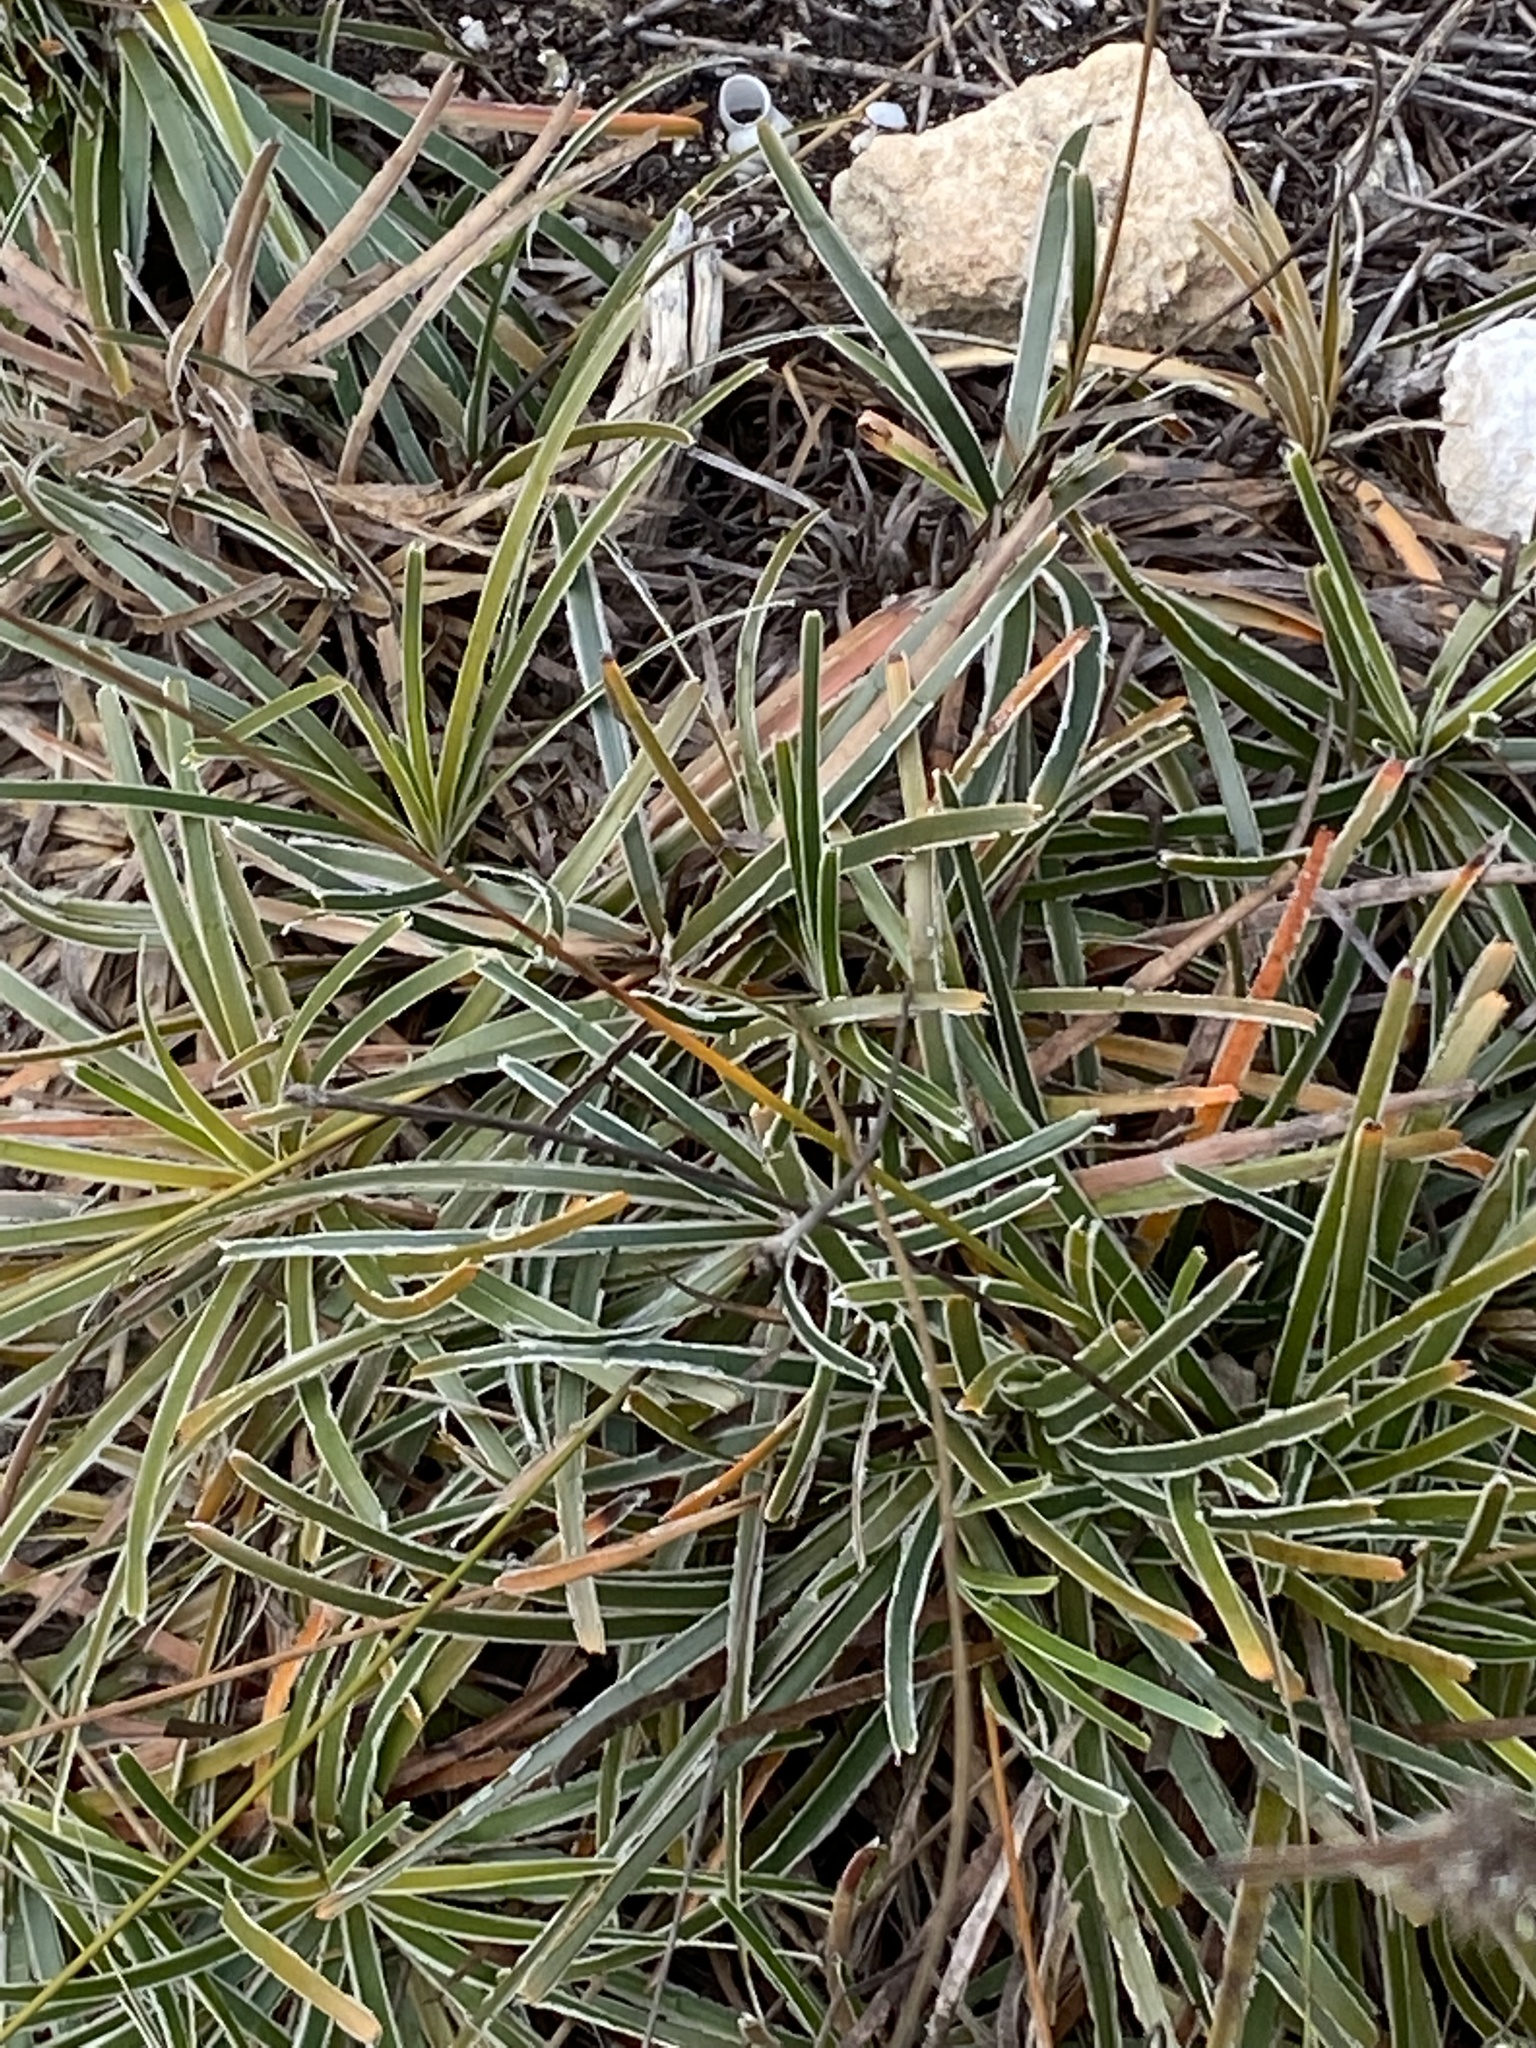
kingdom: Plantae
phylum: Tracheophyta
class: Liliopsida
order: Poales
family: Cyperaceae
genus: Ficinia
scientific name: Ficinia truncata
